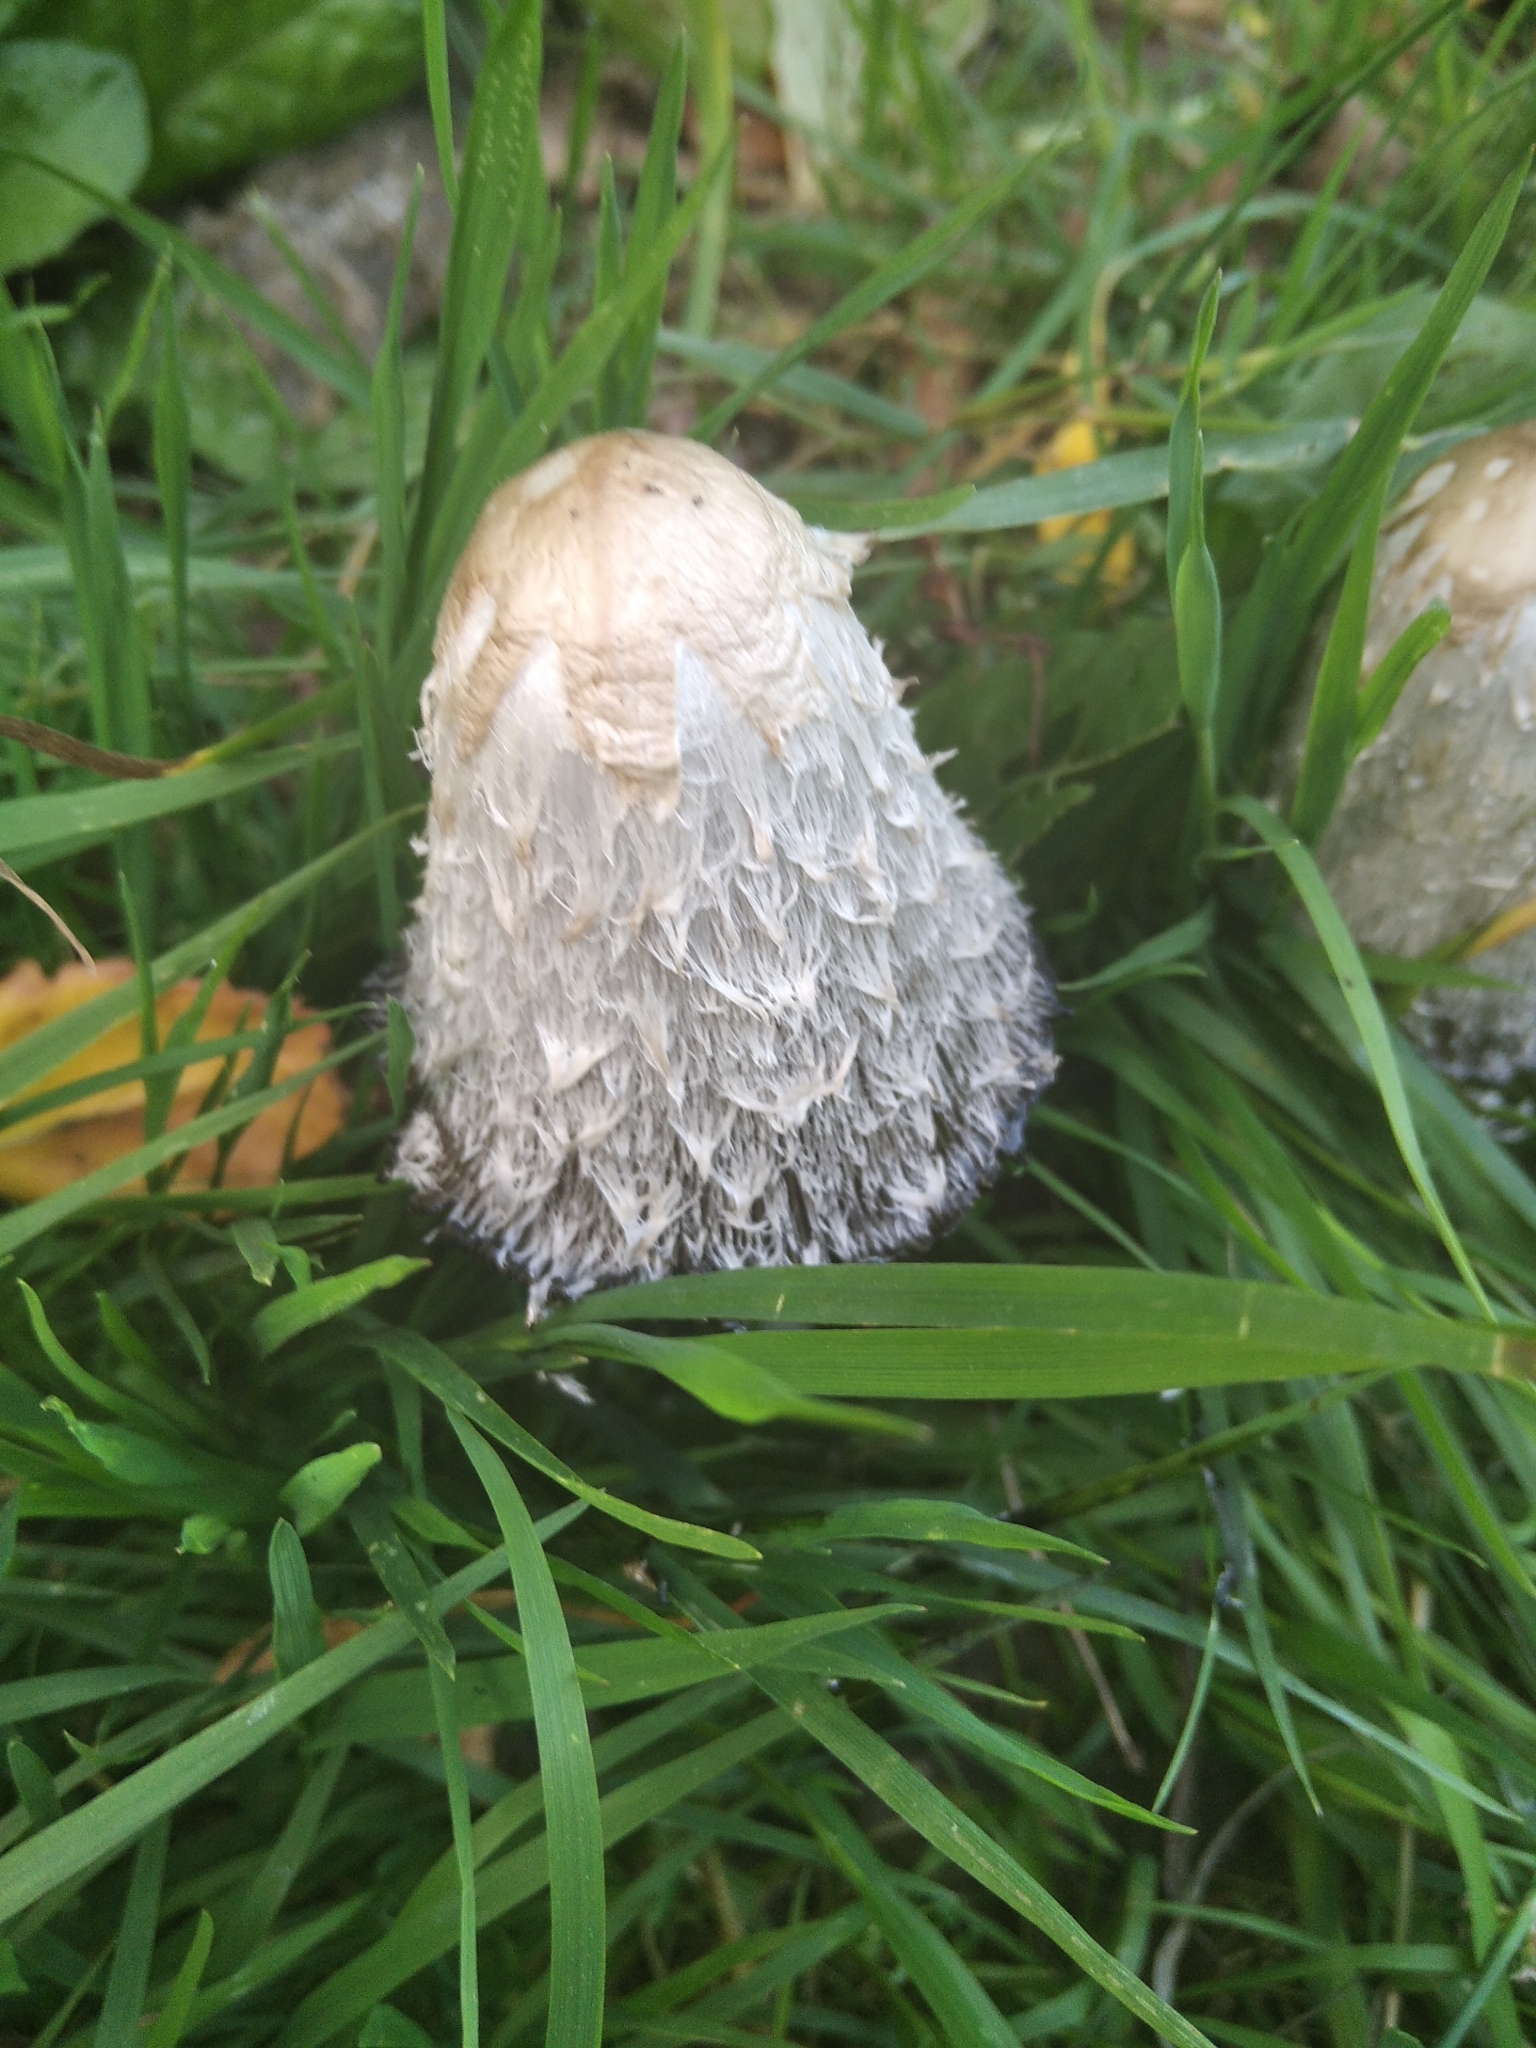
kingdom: Fungi
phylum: Basidiomycota
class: Agaricomycetes
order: Agaricales
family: Agaricaceae
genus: Coprinus
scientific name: Coprinus comatus
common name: Lawyer's wig
